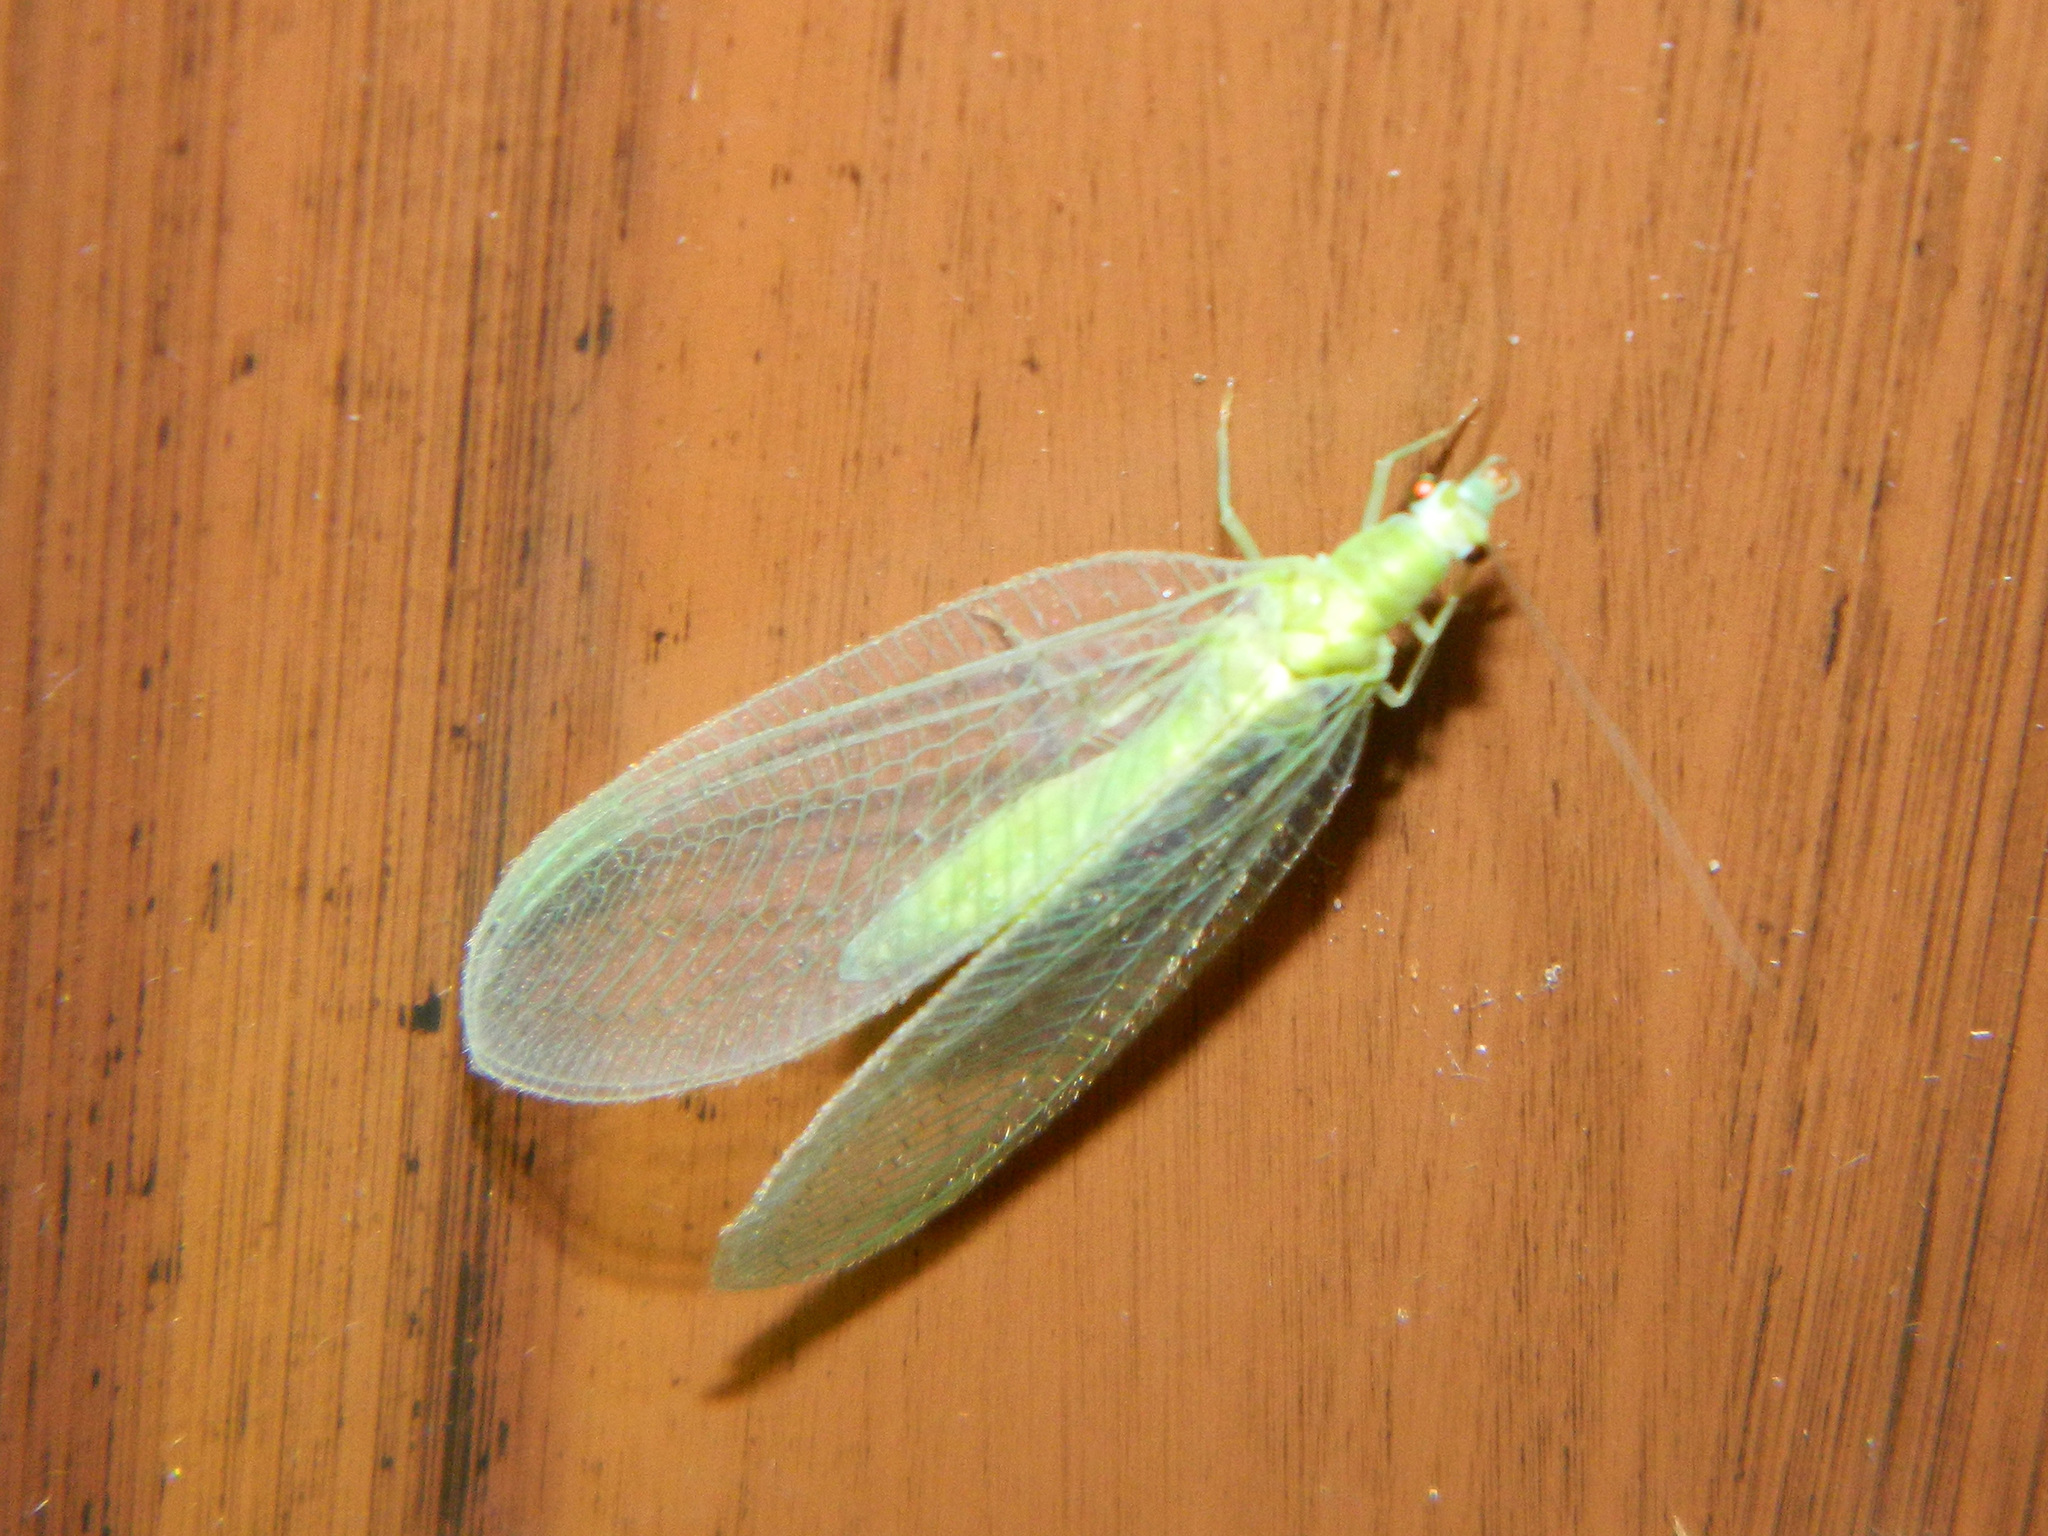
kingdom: Animalia
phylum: Arthropoda
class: Insecta
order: Neuroptera
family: Chrysopidae
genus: Chrysoperla
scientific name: Chrysoperla
